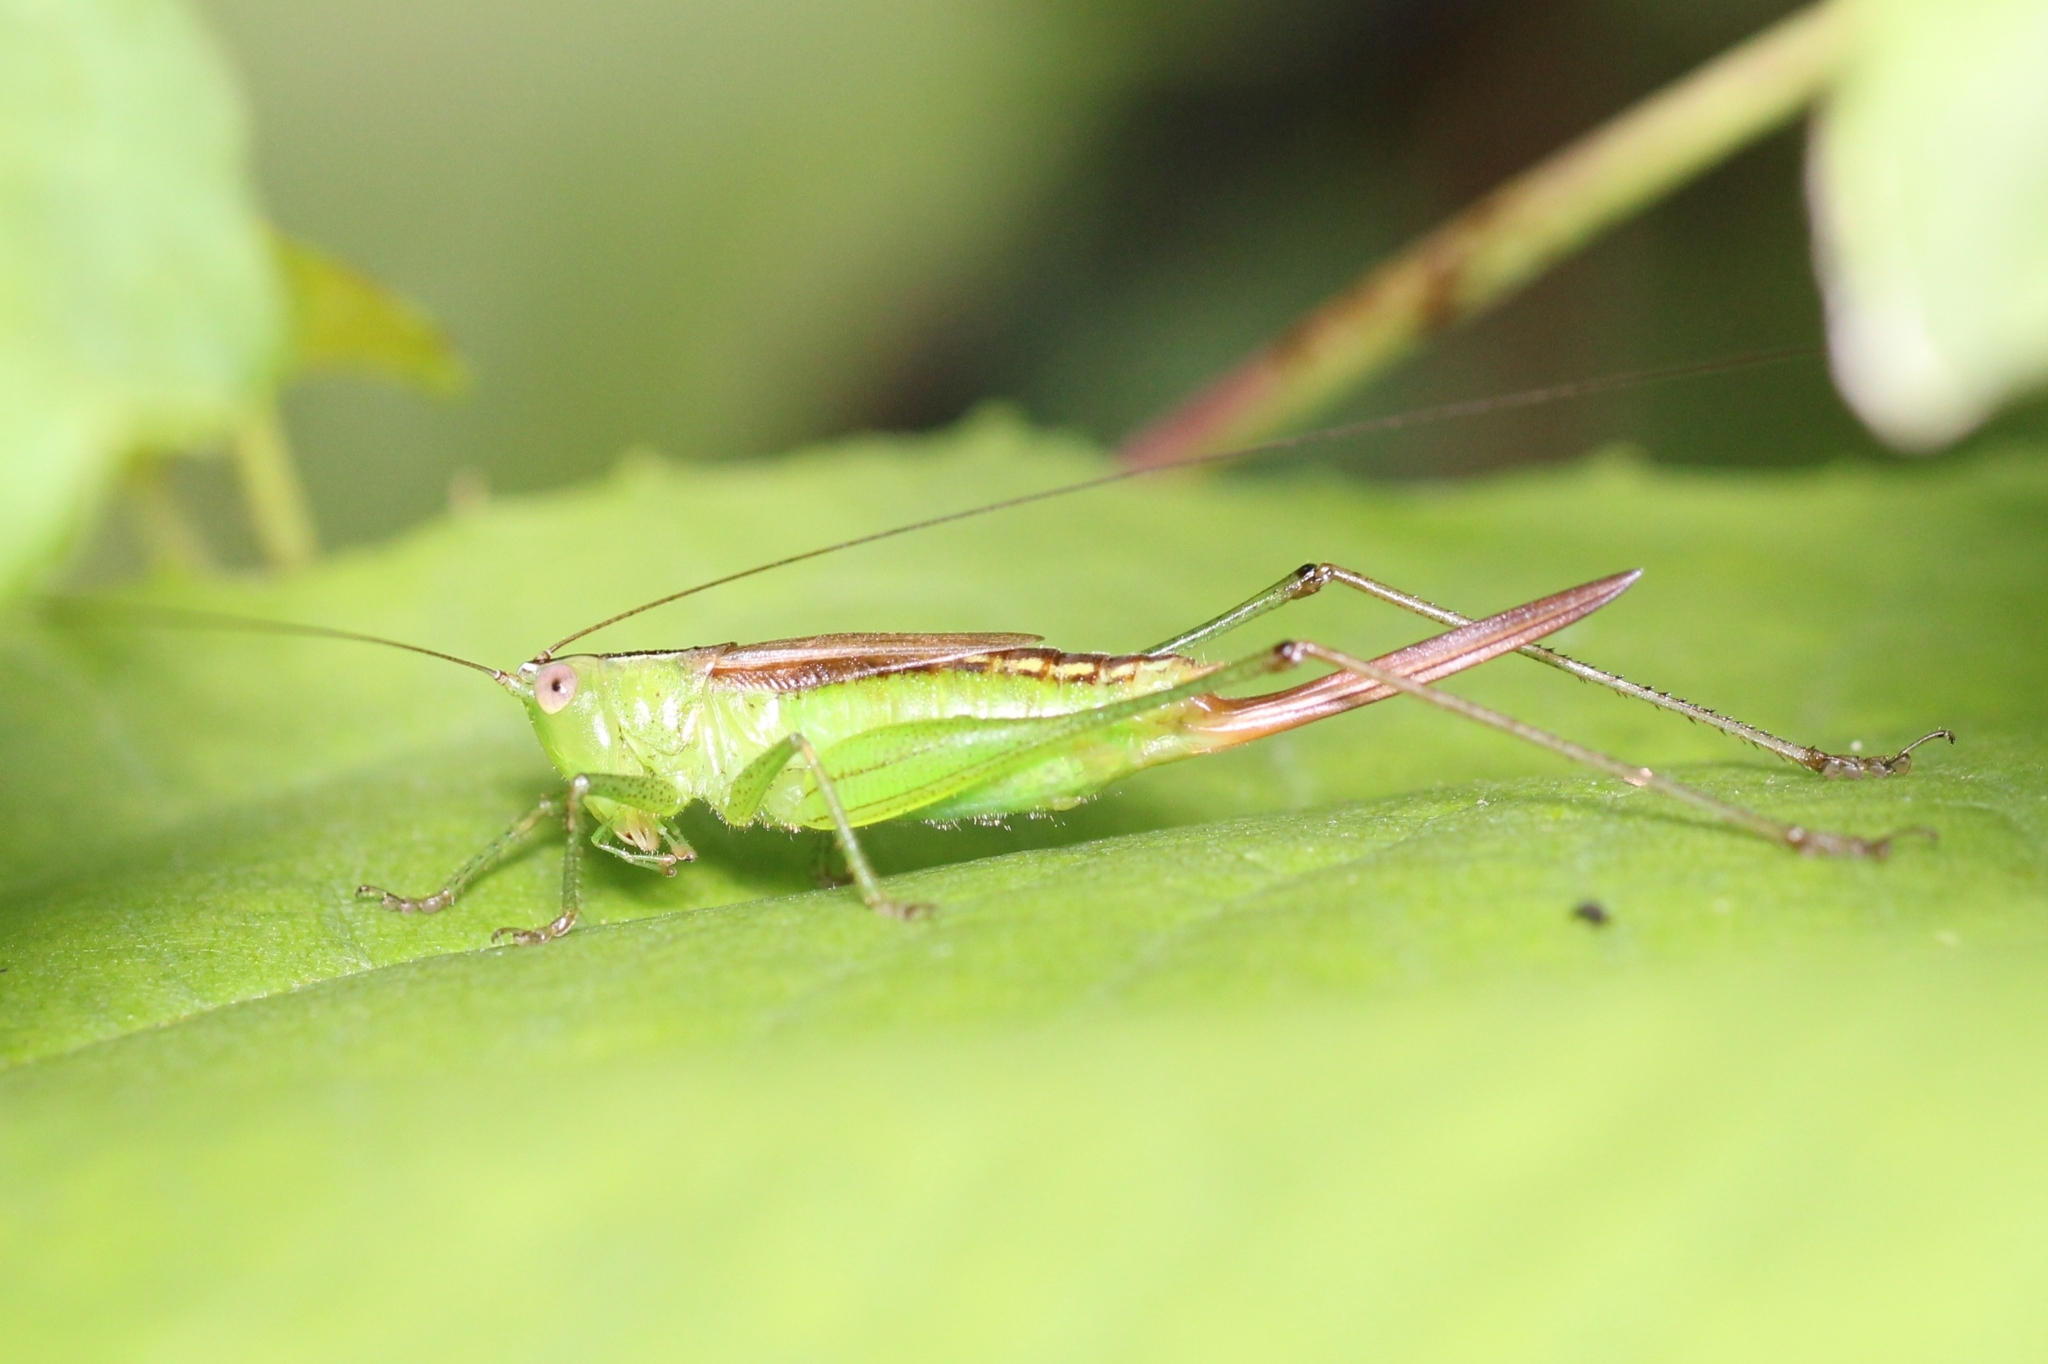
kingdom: Animalia
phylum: Arthropoda
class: Insecta
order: Orthoptera
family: Tettigoniidae
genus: Conocephalus
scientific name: Conocephalus brevipennis
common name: Short-winged meadow katydid
